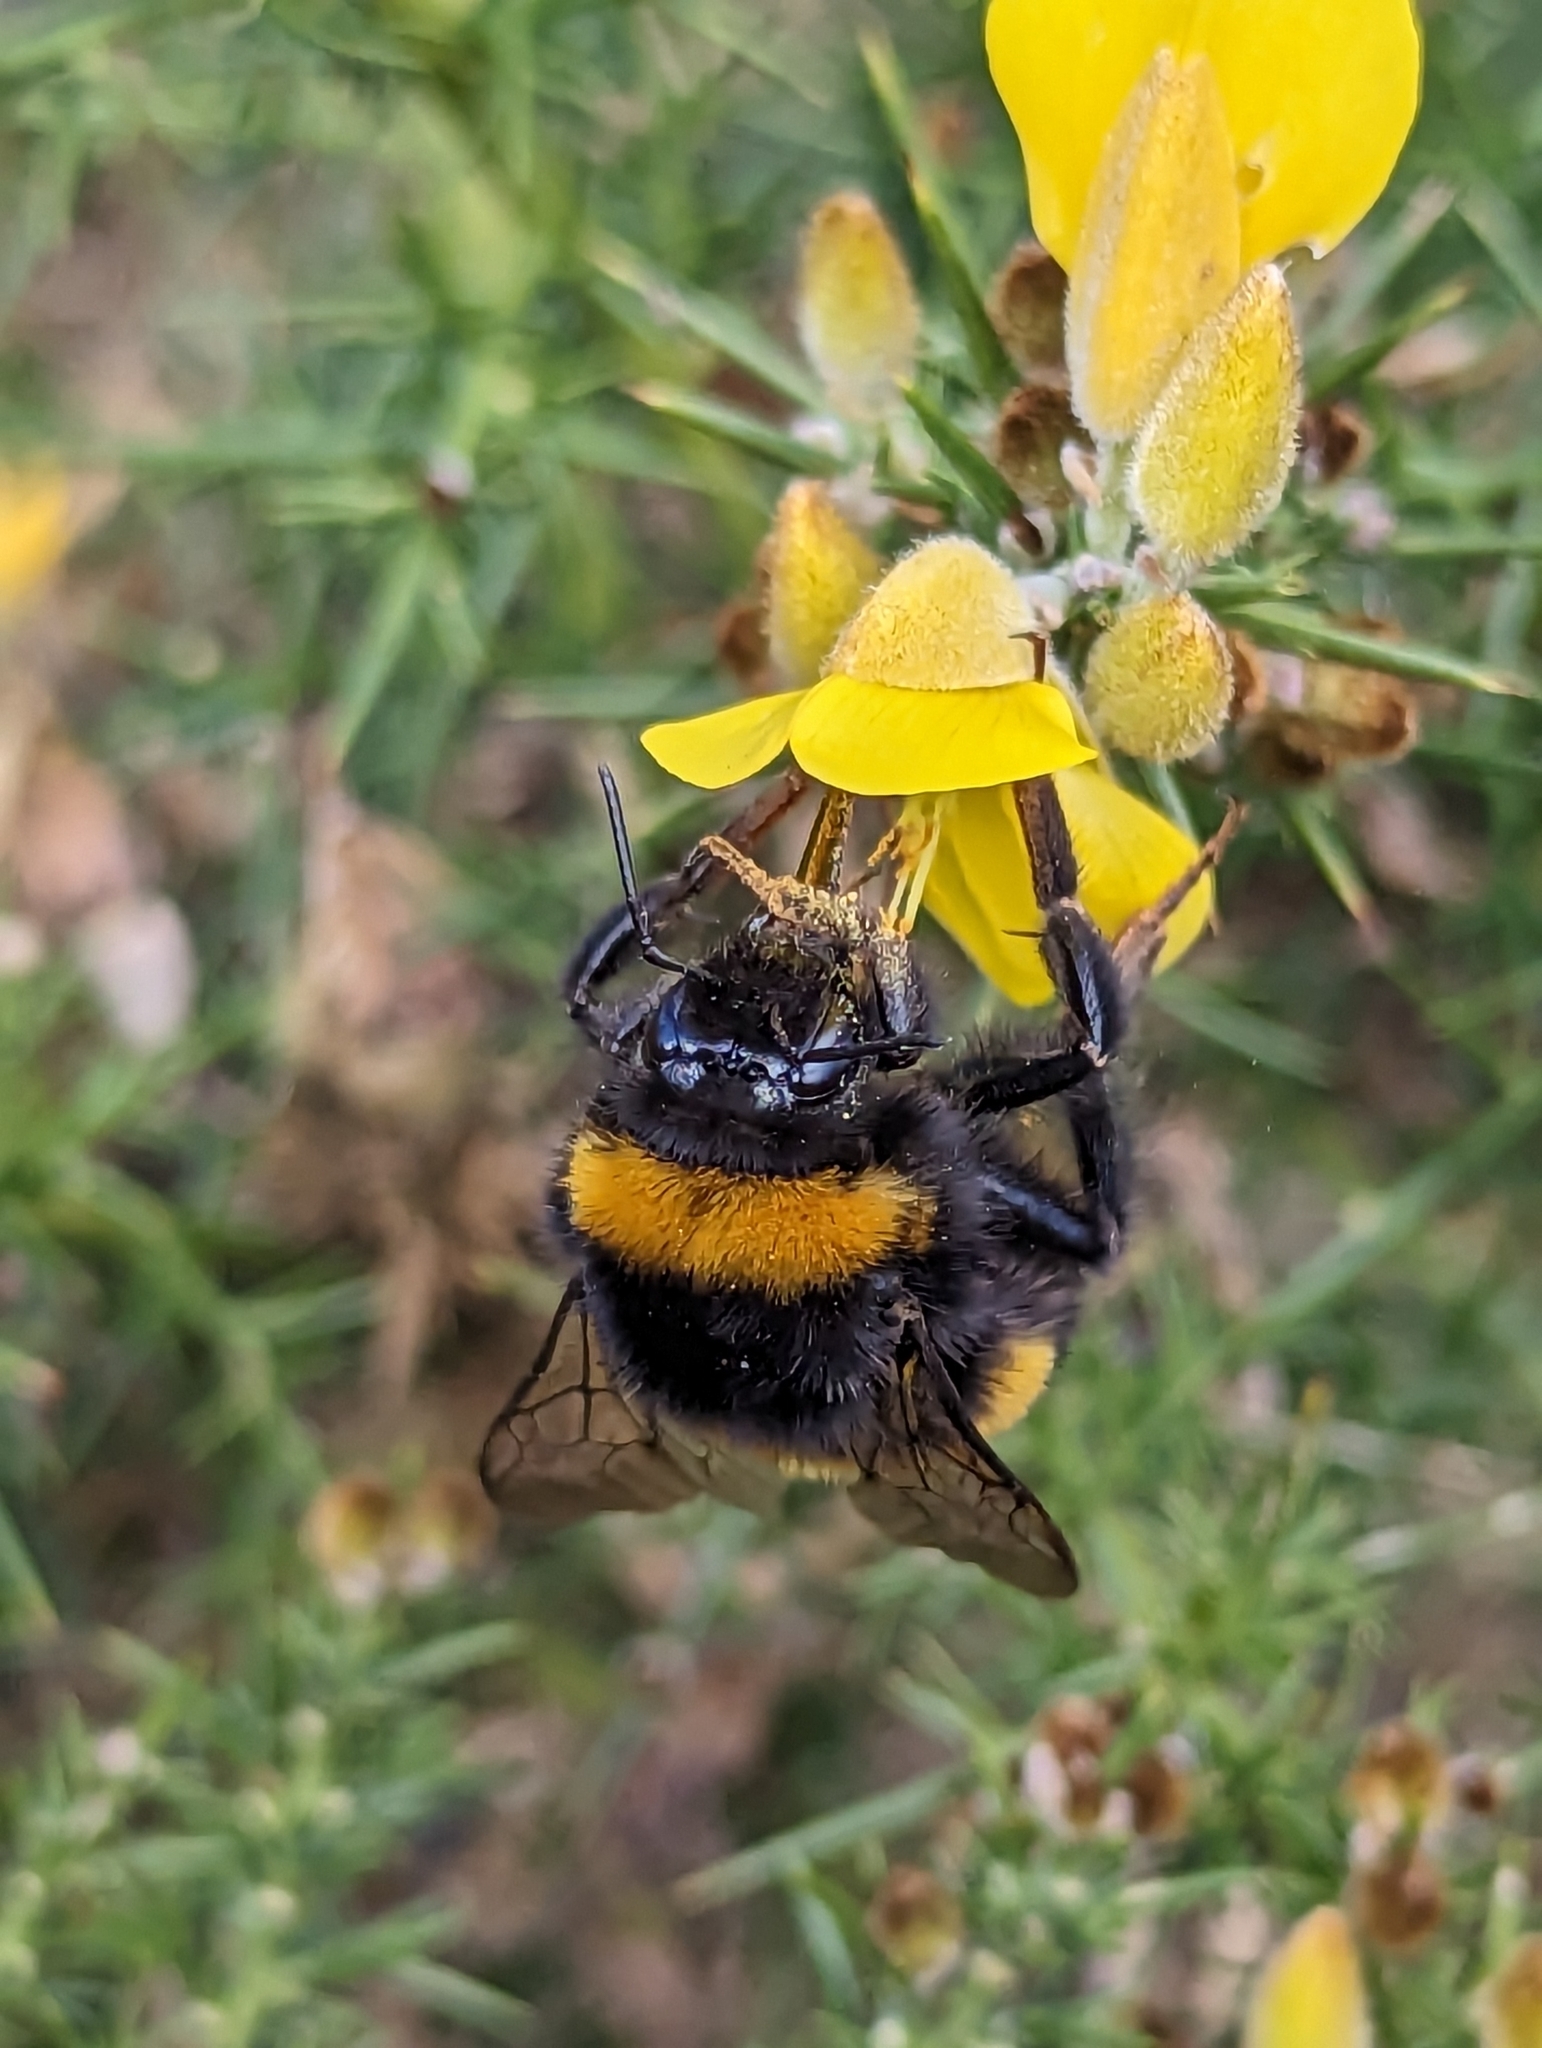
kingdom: Animalia
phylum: Arthropoda
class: Insecta
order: Hymenoptera
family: Apidae
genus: Bombus
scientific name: Bombus terrestris
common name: Buff-tailed bumblebee
